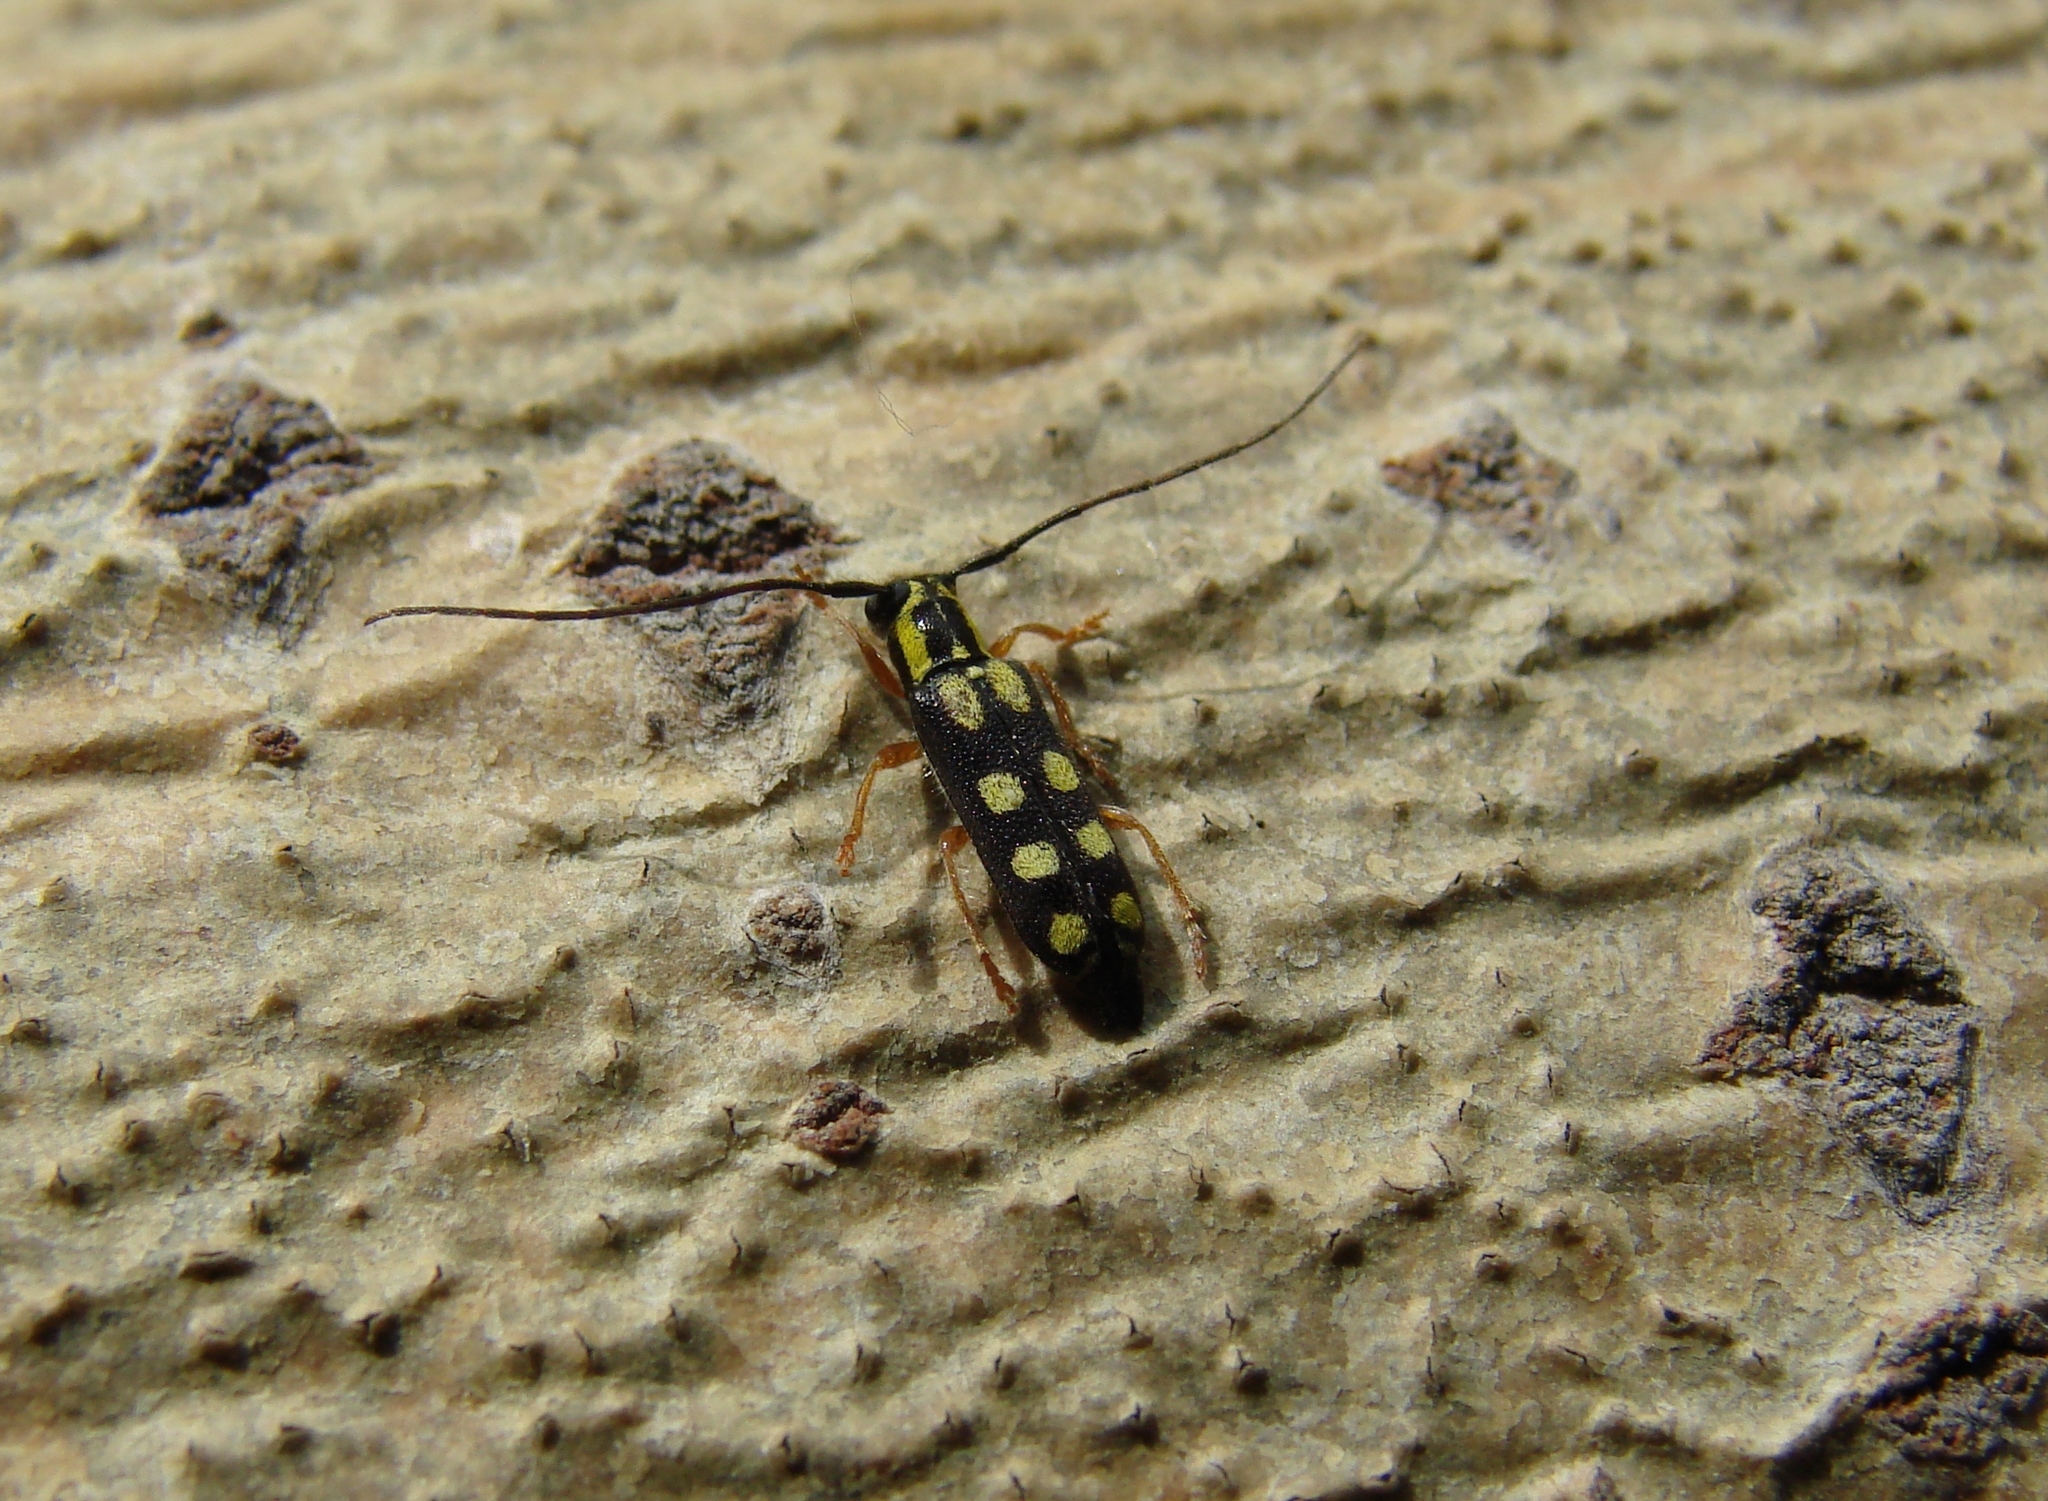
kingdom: Animalia
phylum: Arthropoda
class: Insecta
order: Coleoptera
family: Cerambycidae
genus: Menesia
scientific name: Menesia sulphurata
